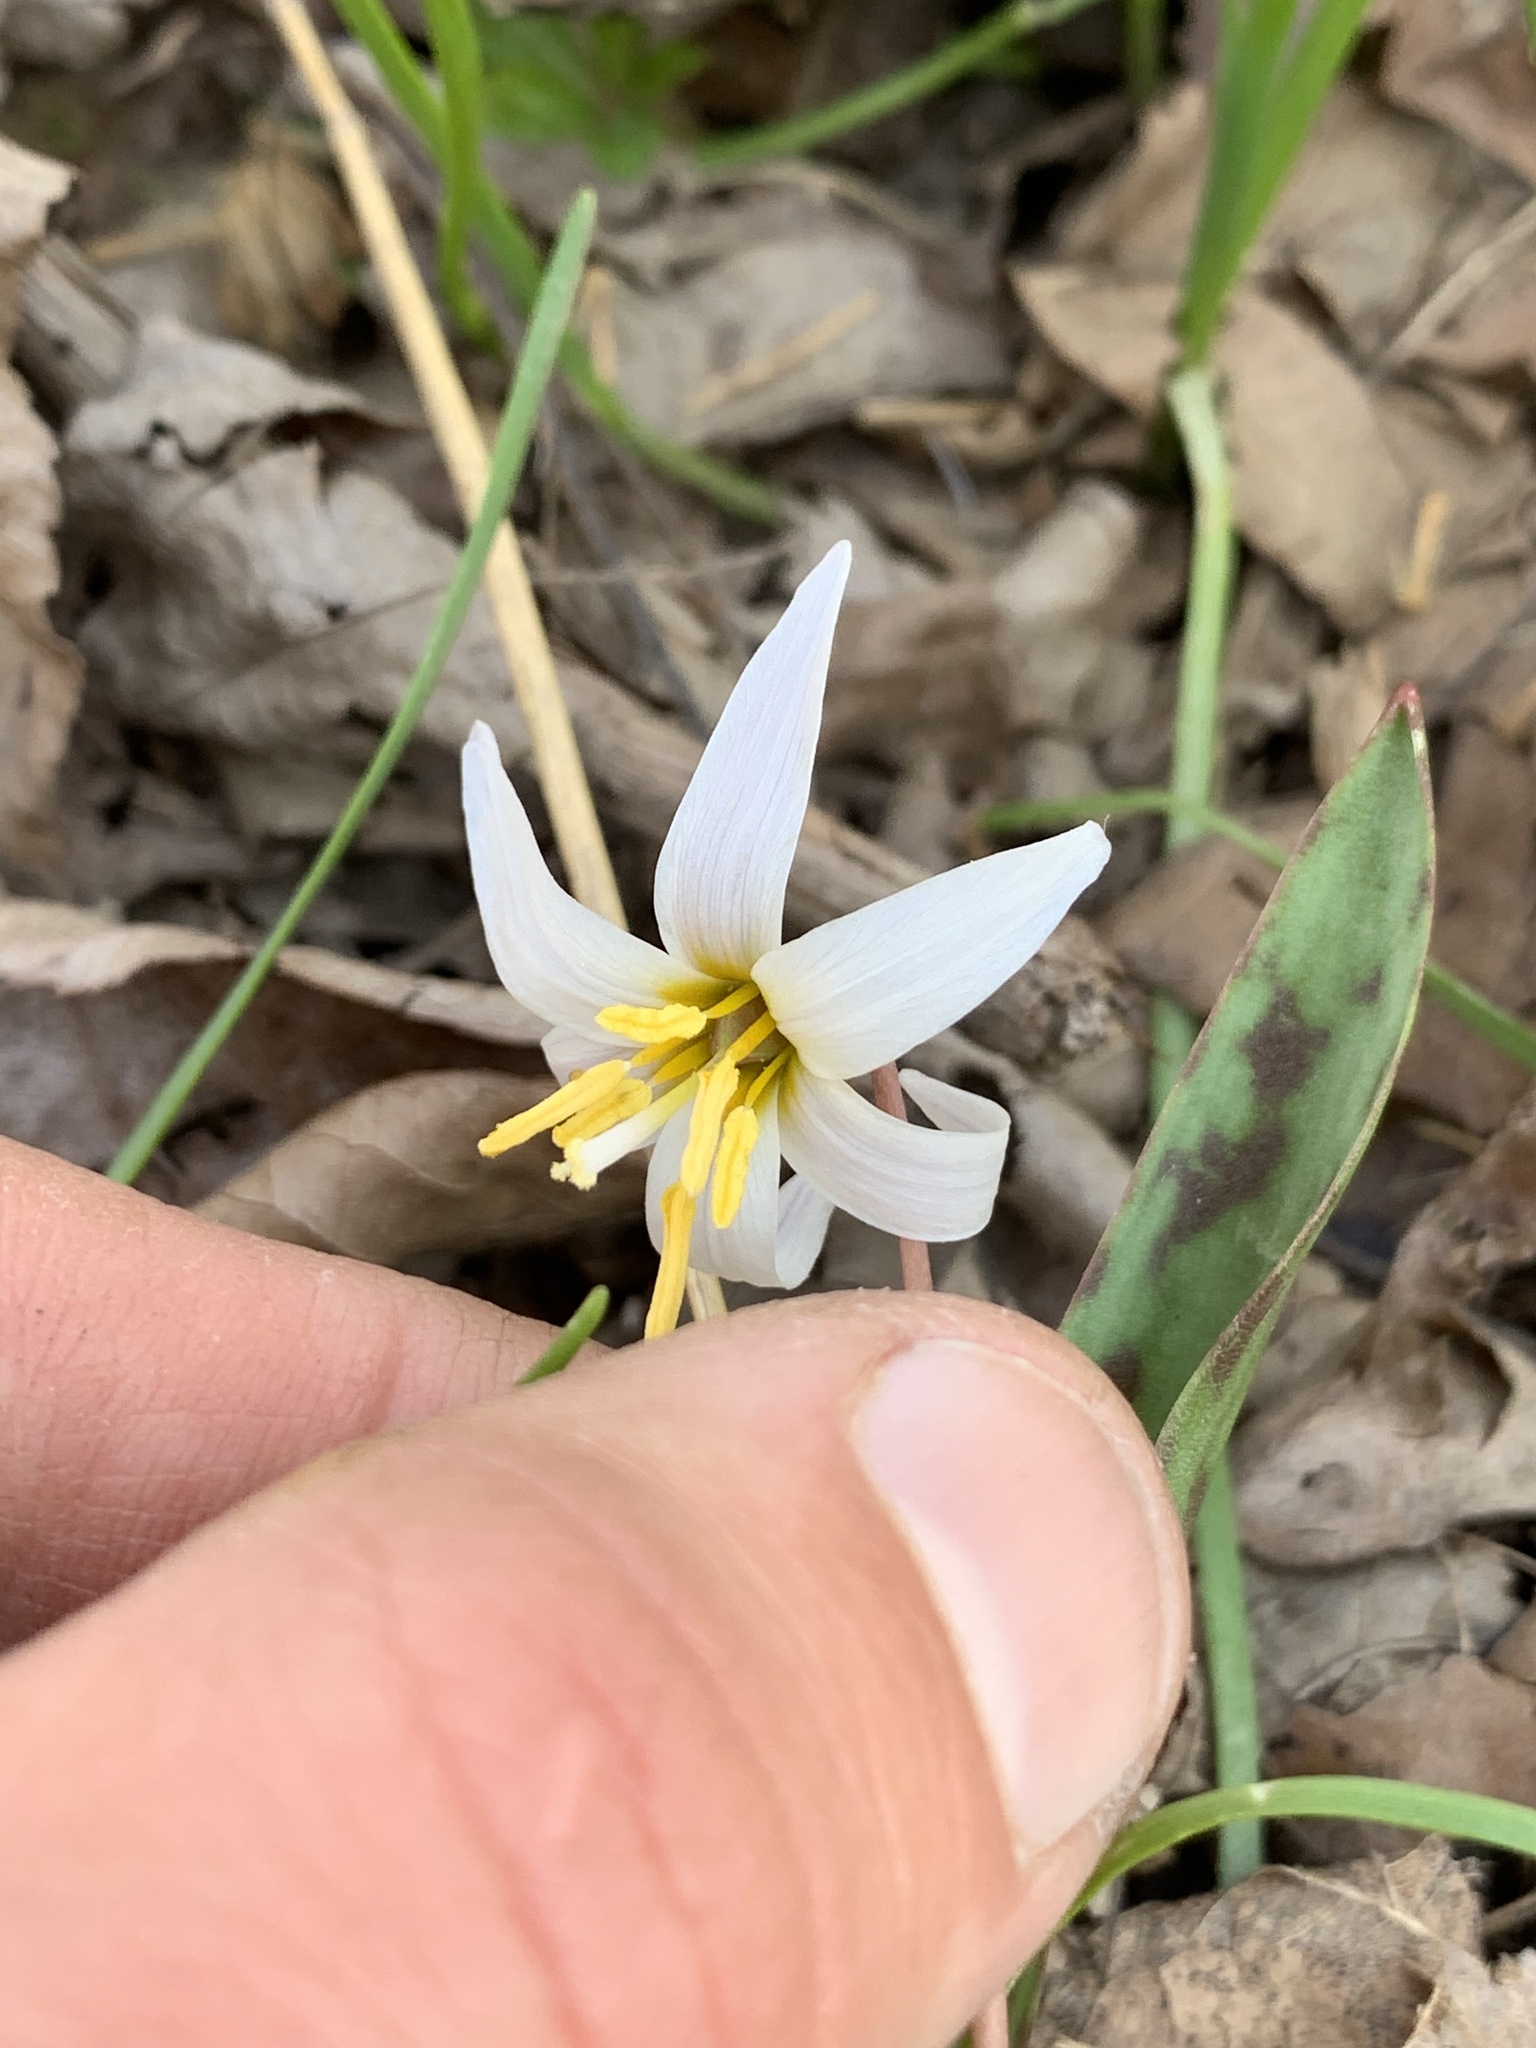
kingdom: Plantae
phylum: Tracheophyta
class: Liliopsida
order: Liliales
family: Liliaceae
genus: Erythronium
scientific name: Erythronium albidum
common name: White trout-lily
